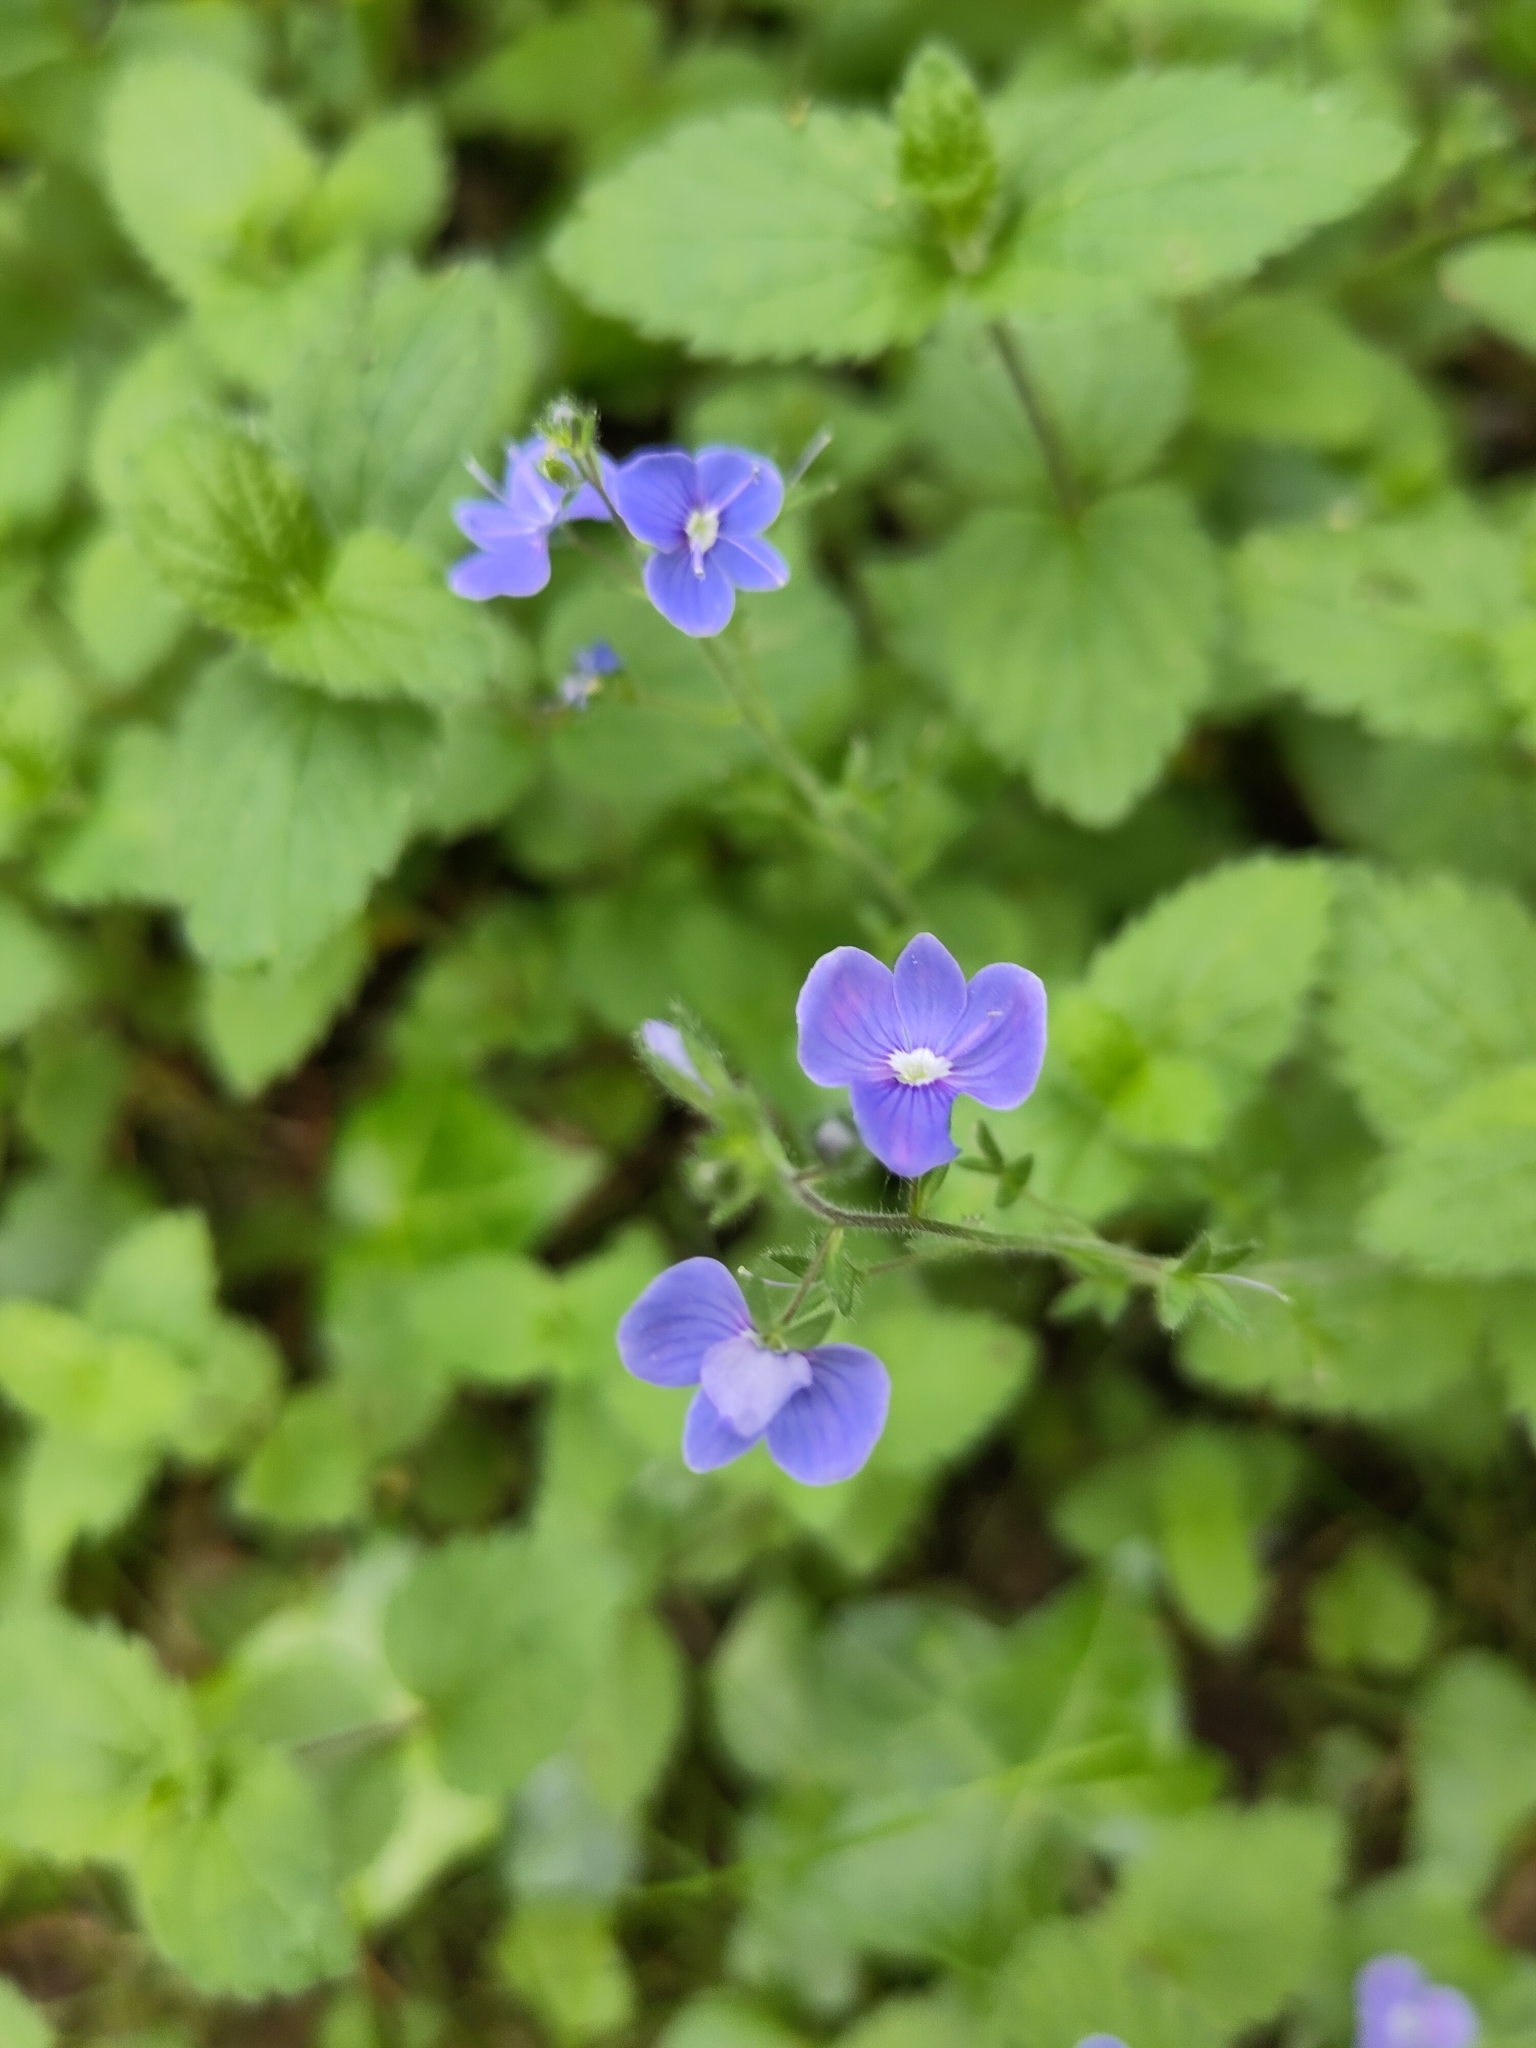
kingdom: Plantae
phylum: Tracheophyta
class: Magnoliopsida
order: Lamiales
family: Plantaginaceae
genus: Veronica
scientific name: Veronica chamaedrys
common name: Germander speedwell
